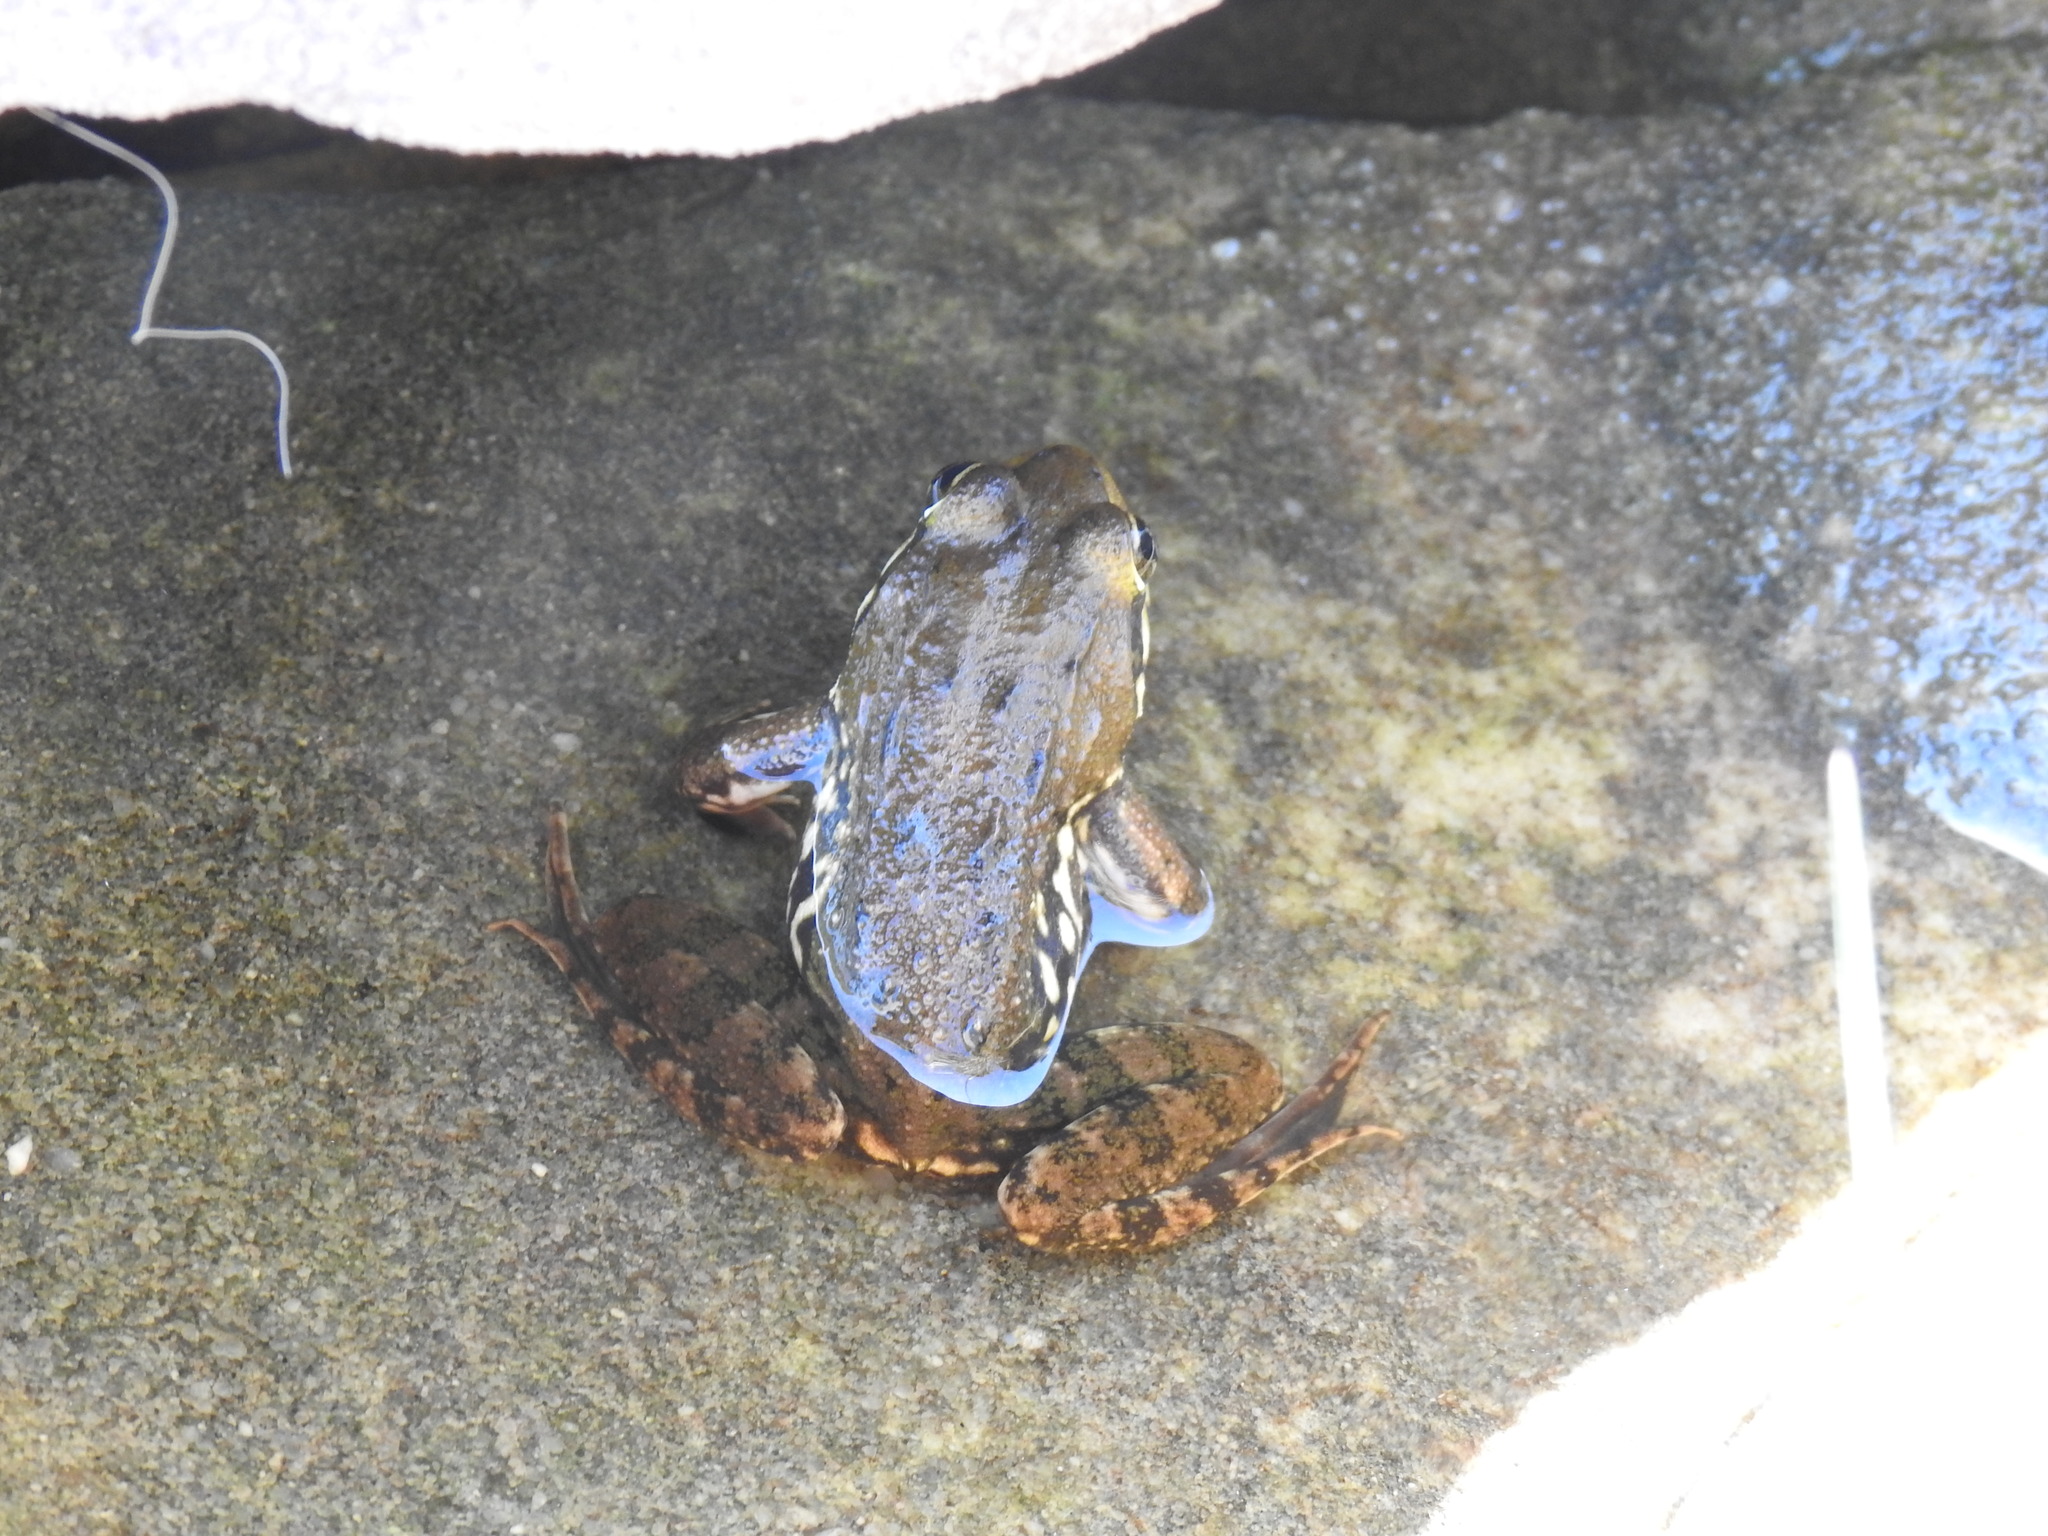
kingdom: Animalia
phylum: Chordata
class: Amphibia
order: Anura
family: Pyxicephalidae
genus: Amietia
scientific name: Amietia fuscigula
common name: Cape rana
